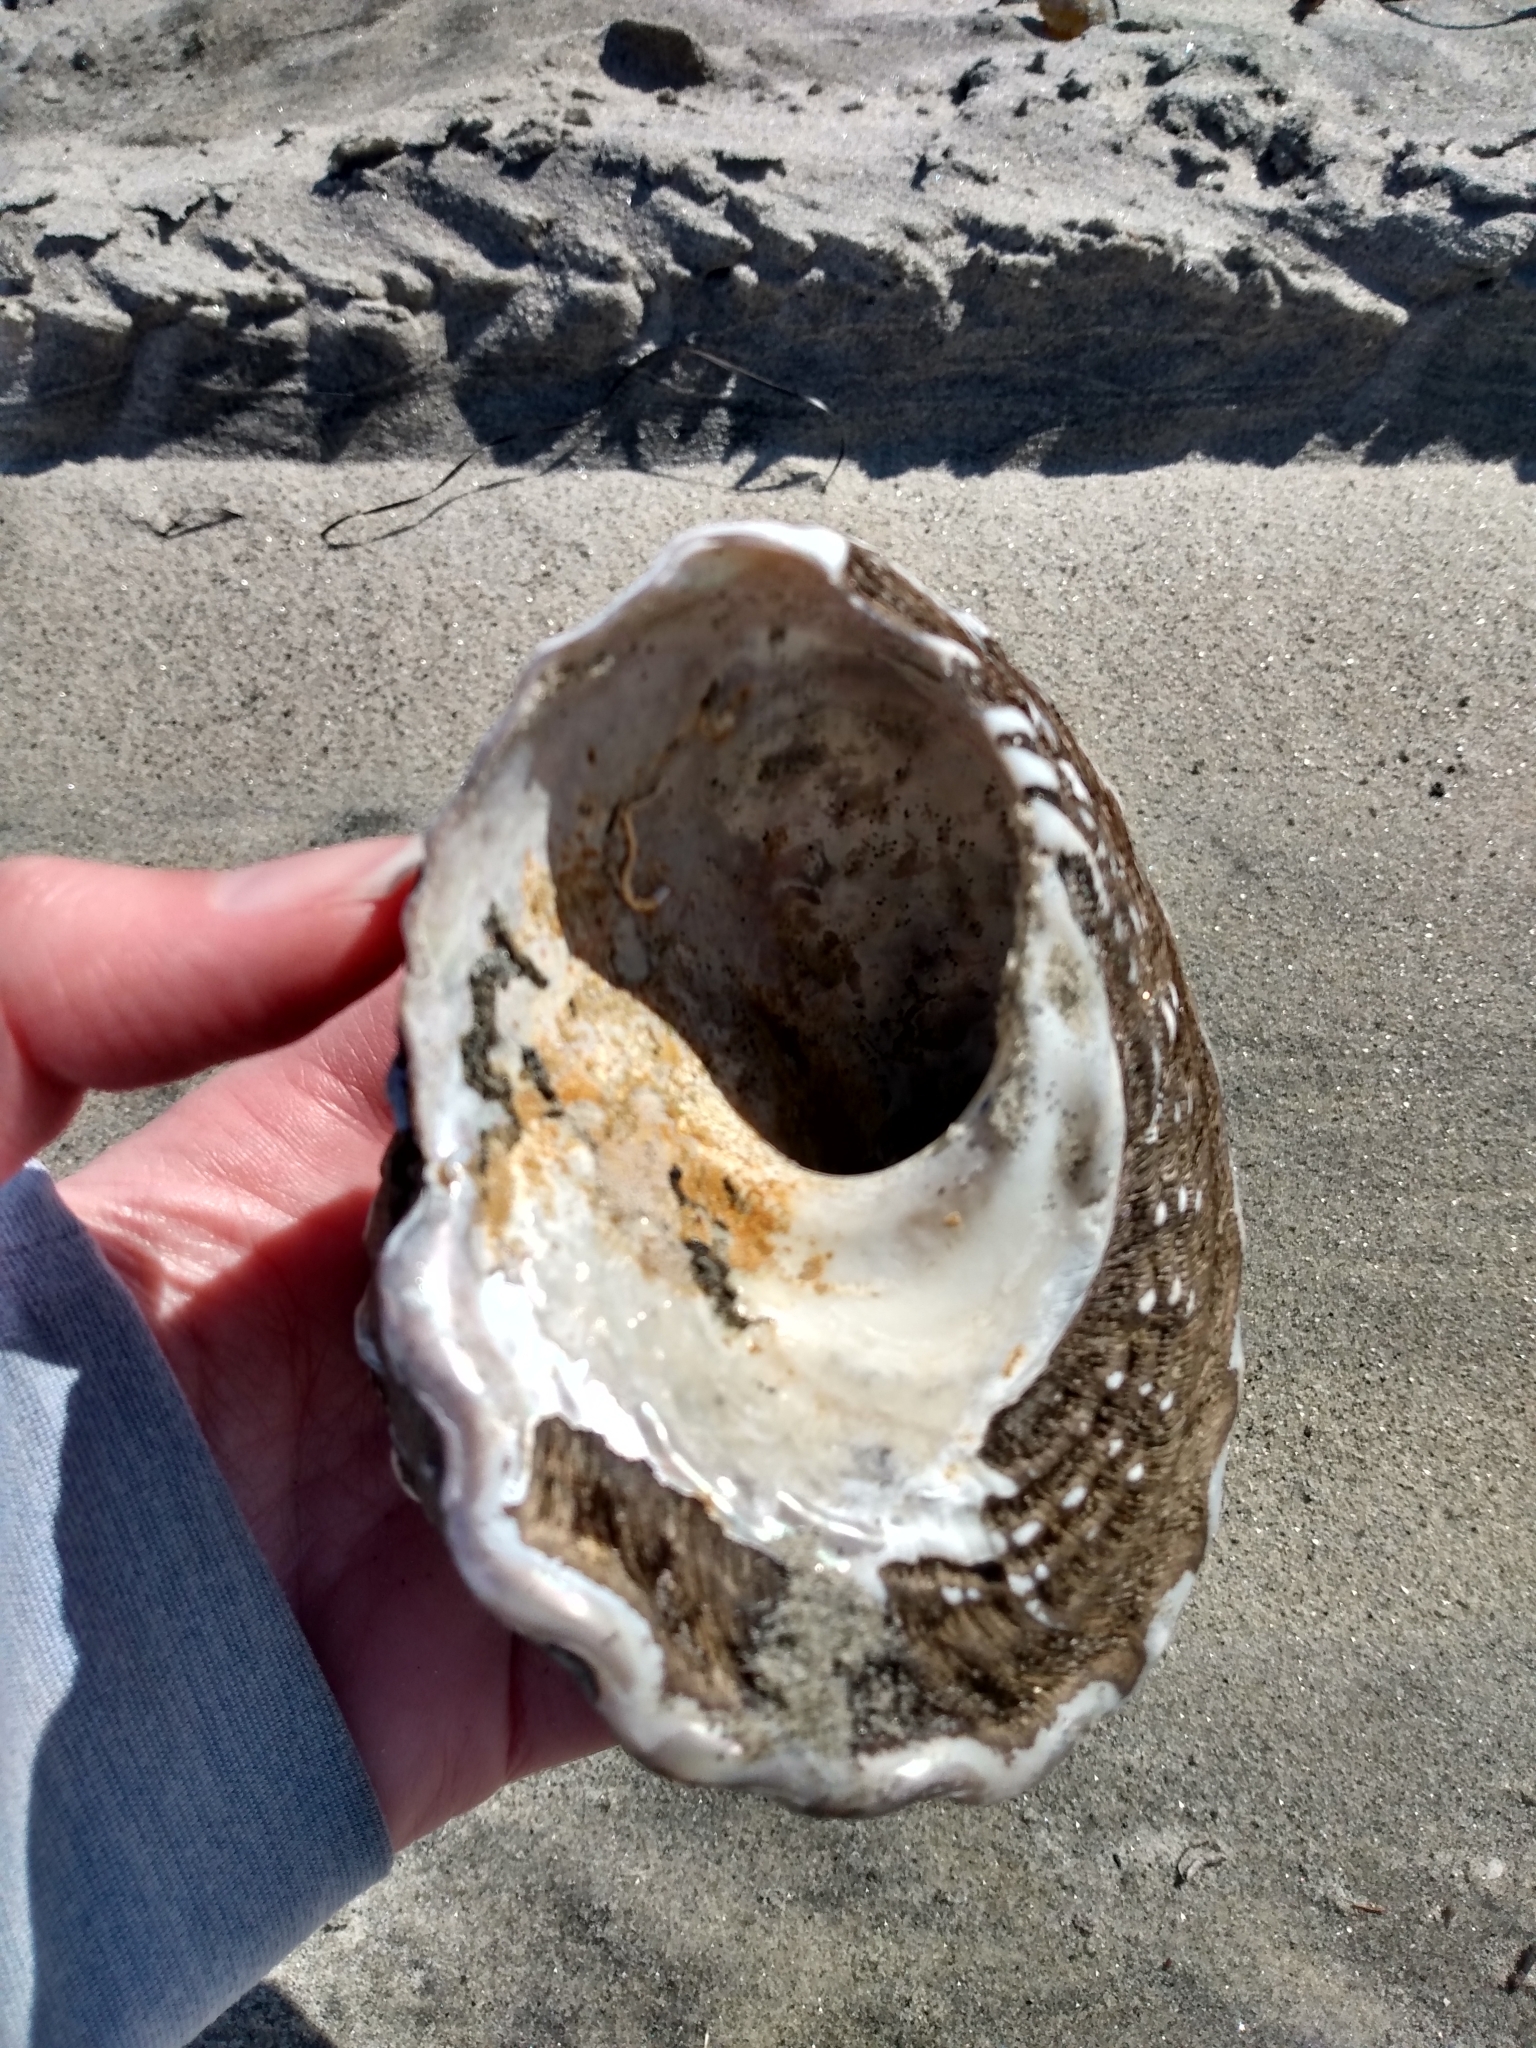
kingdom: Animalia
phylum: Mollusca
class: Gastropoda
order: Trochida
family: Turbinidae
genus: Megastraea
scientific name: Megastraea undosa
